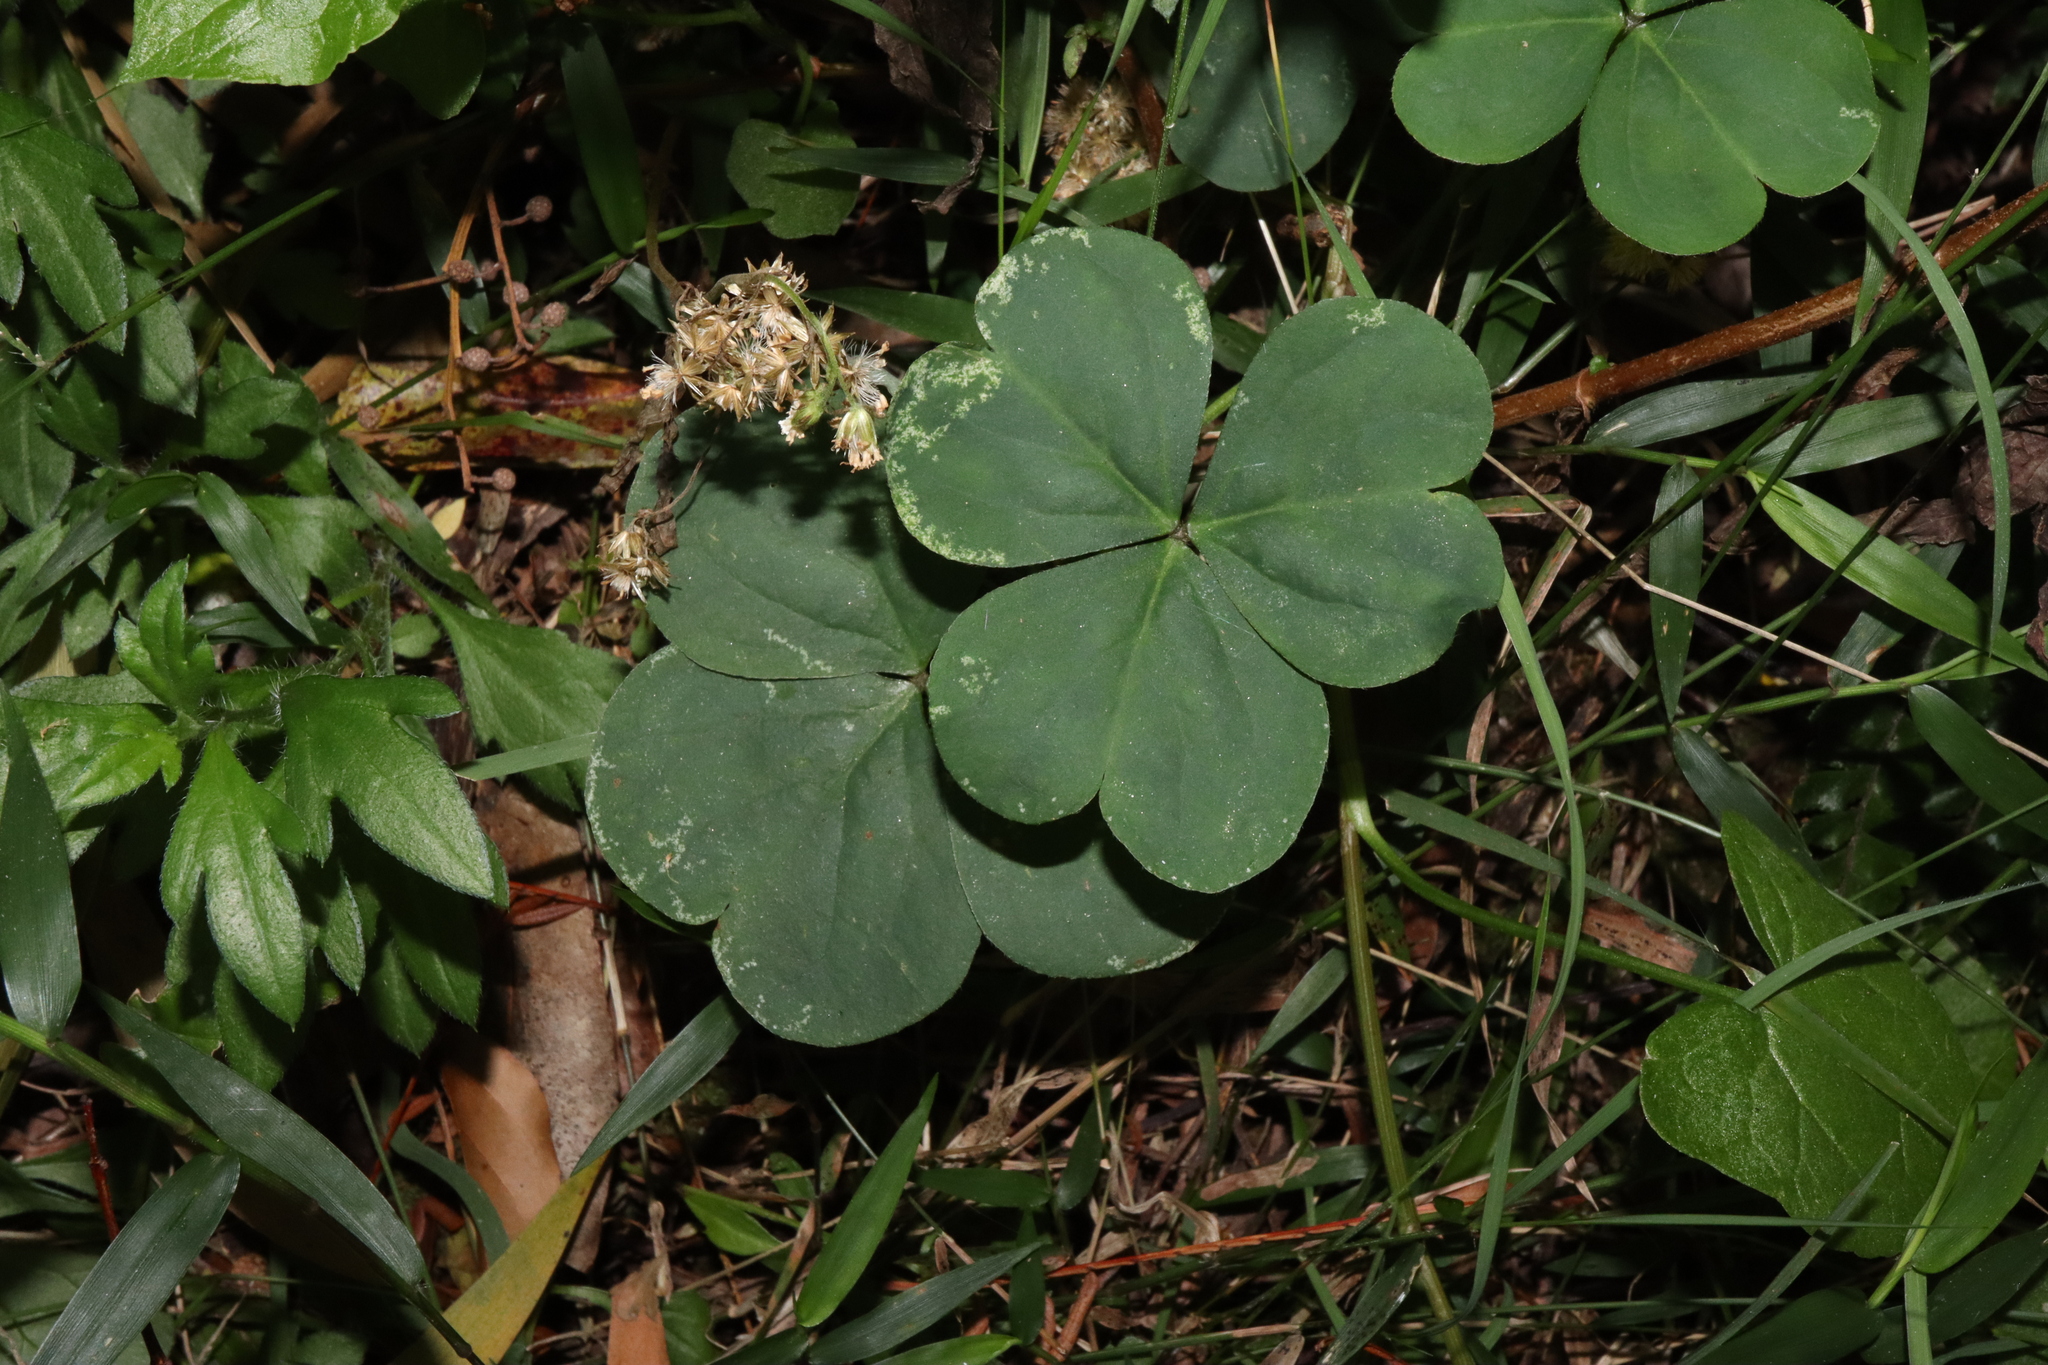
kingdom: Plantae
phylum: Tracheophyta
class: Magnoliopsida
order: Oxalidales
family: Oxalidaceae
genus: Oxalis
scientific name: Oxalis debilis
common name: Large-flowered pink-sorrel
